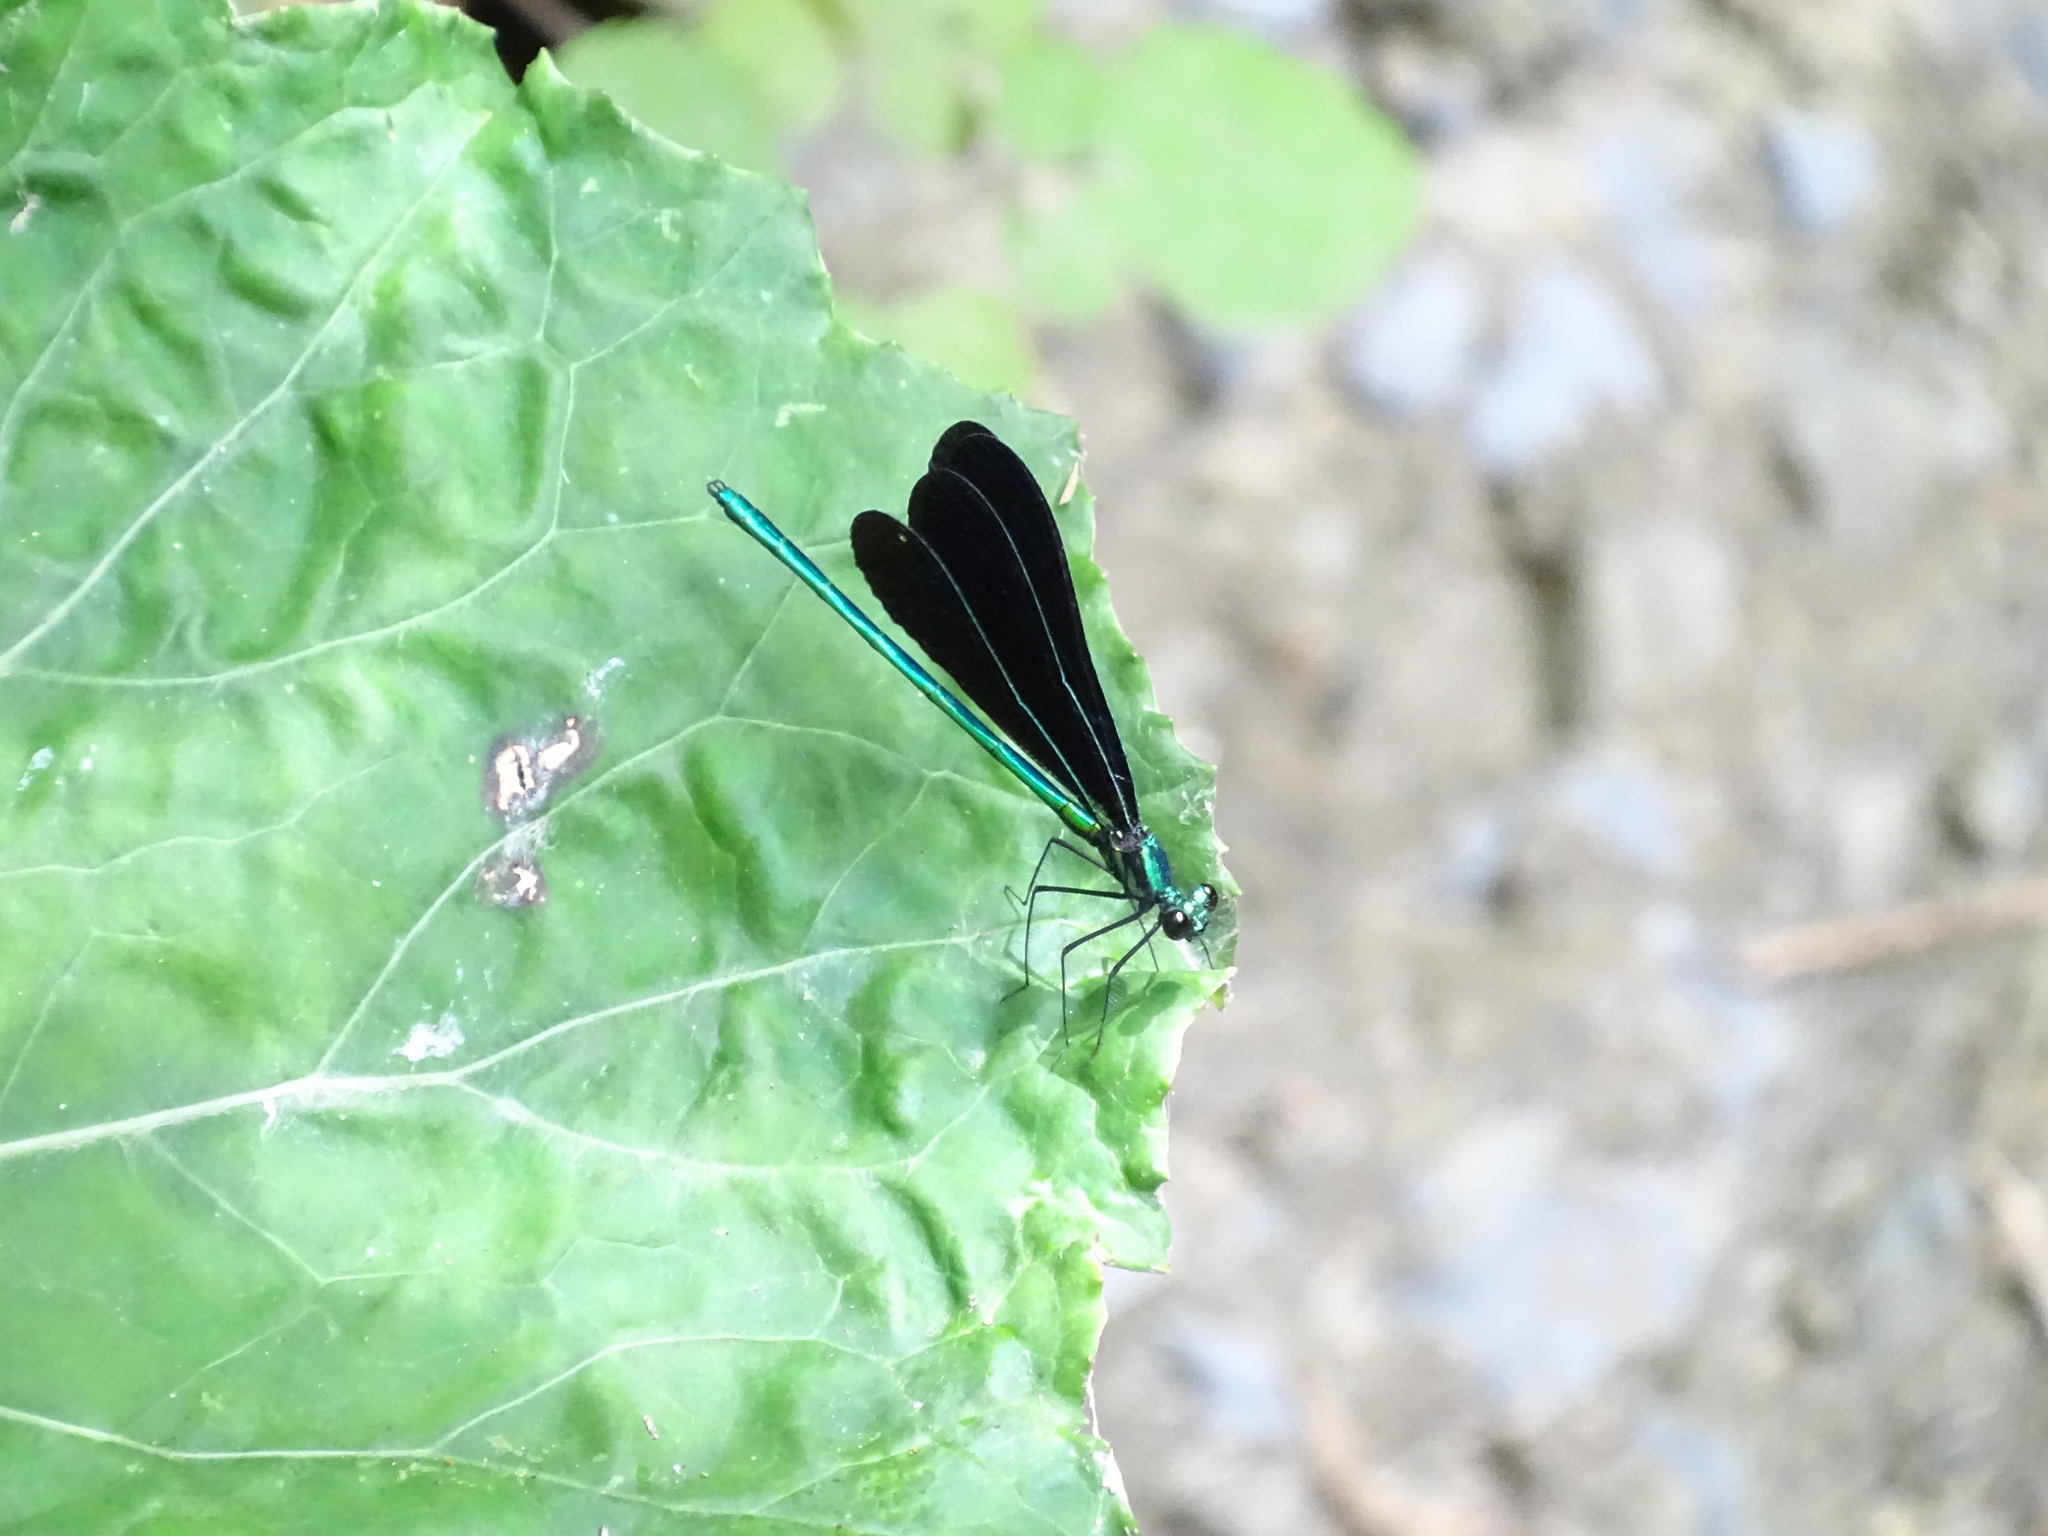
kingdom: Animalia
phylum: Arthropoda
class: Insecta
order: Odonata
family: Calopterygidae
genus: Calopteryx
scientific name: Calopteryx maculata
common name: Ebony jewelwing
